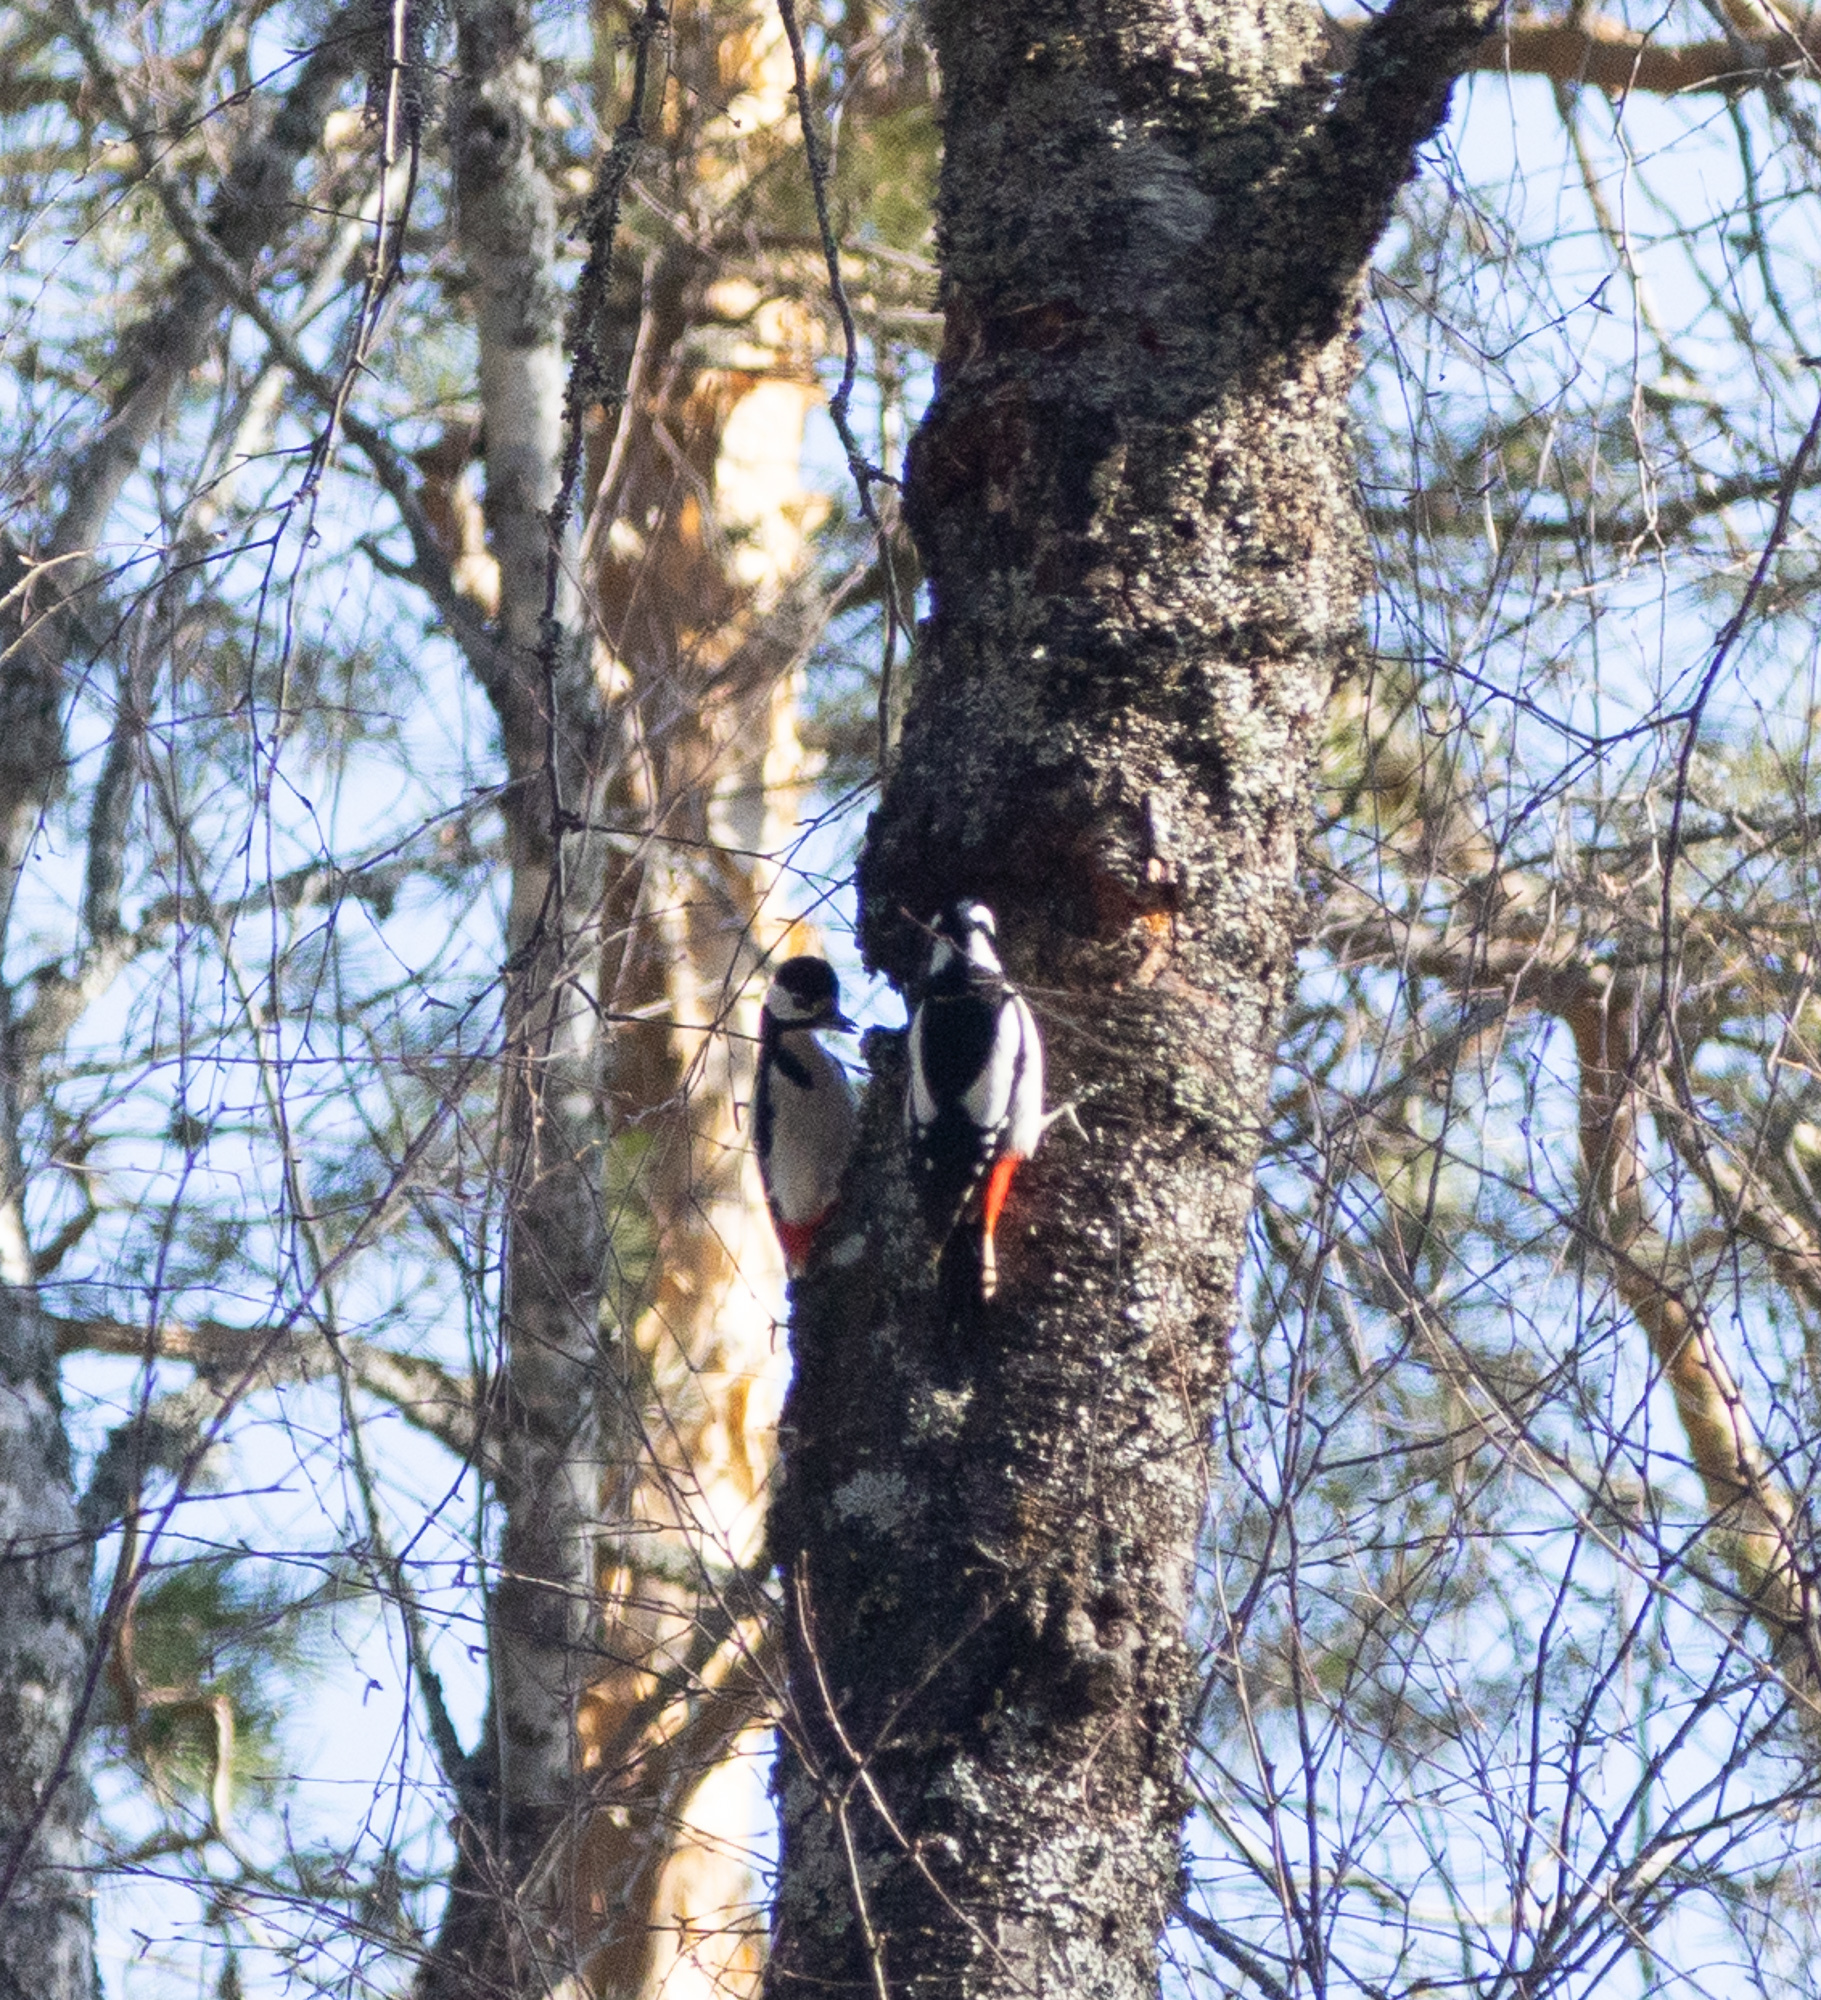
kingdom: Animalia
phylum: Chordata
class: Aves
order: Piciformes
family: Picidae
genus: Dendrocopos
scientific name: Dendrocopos major
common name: Great spotted woodpecker
